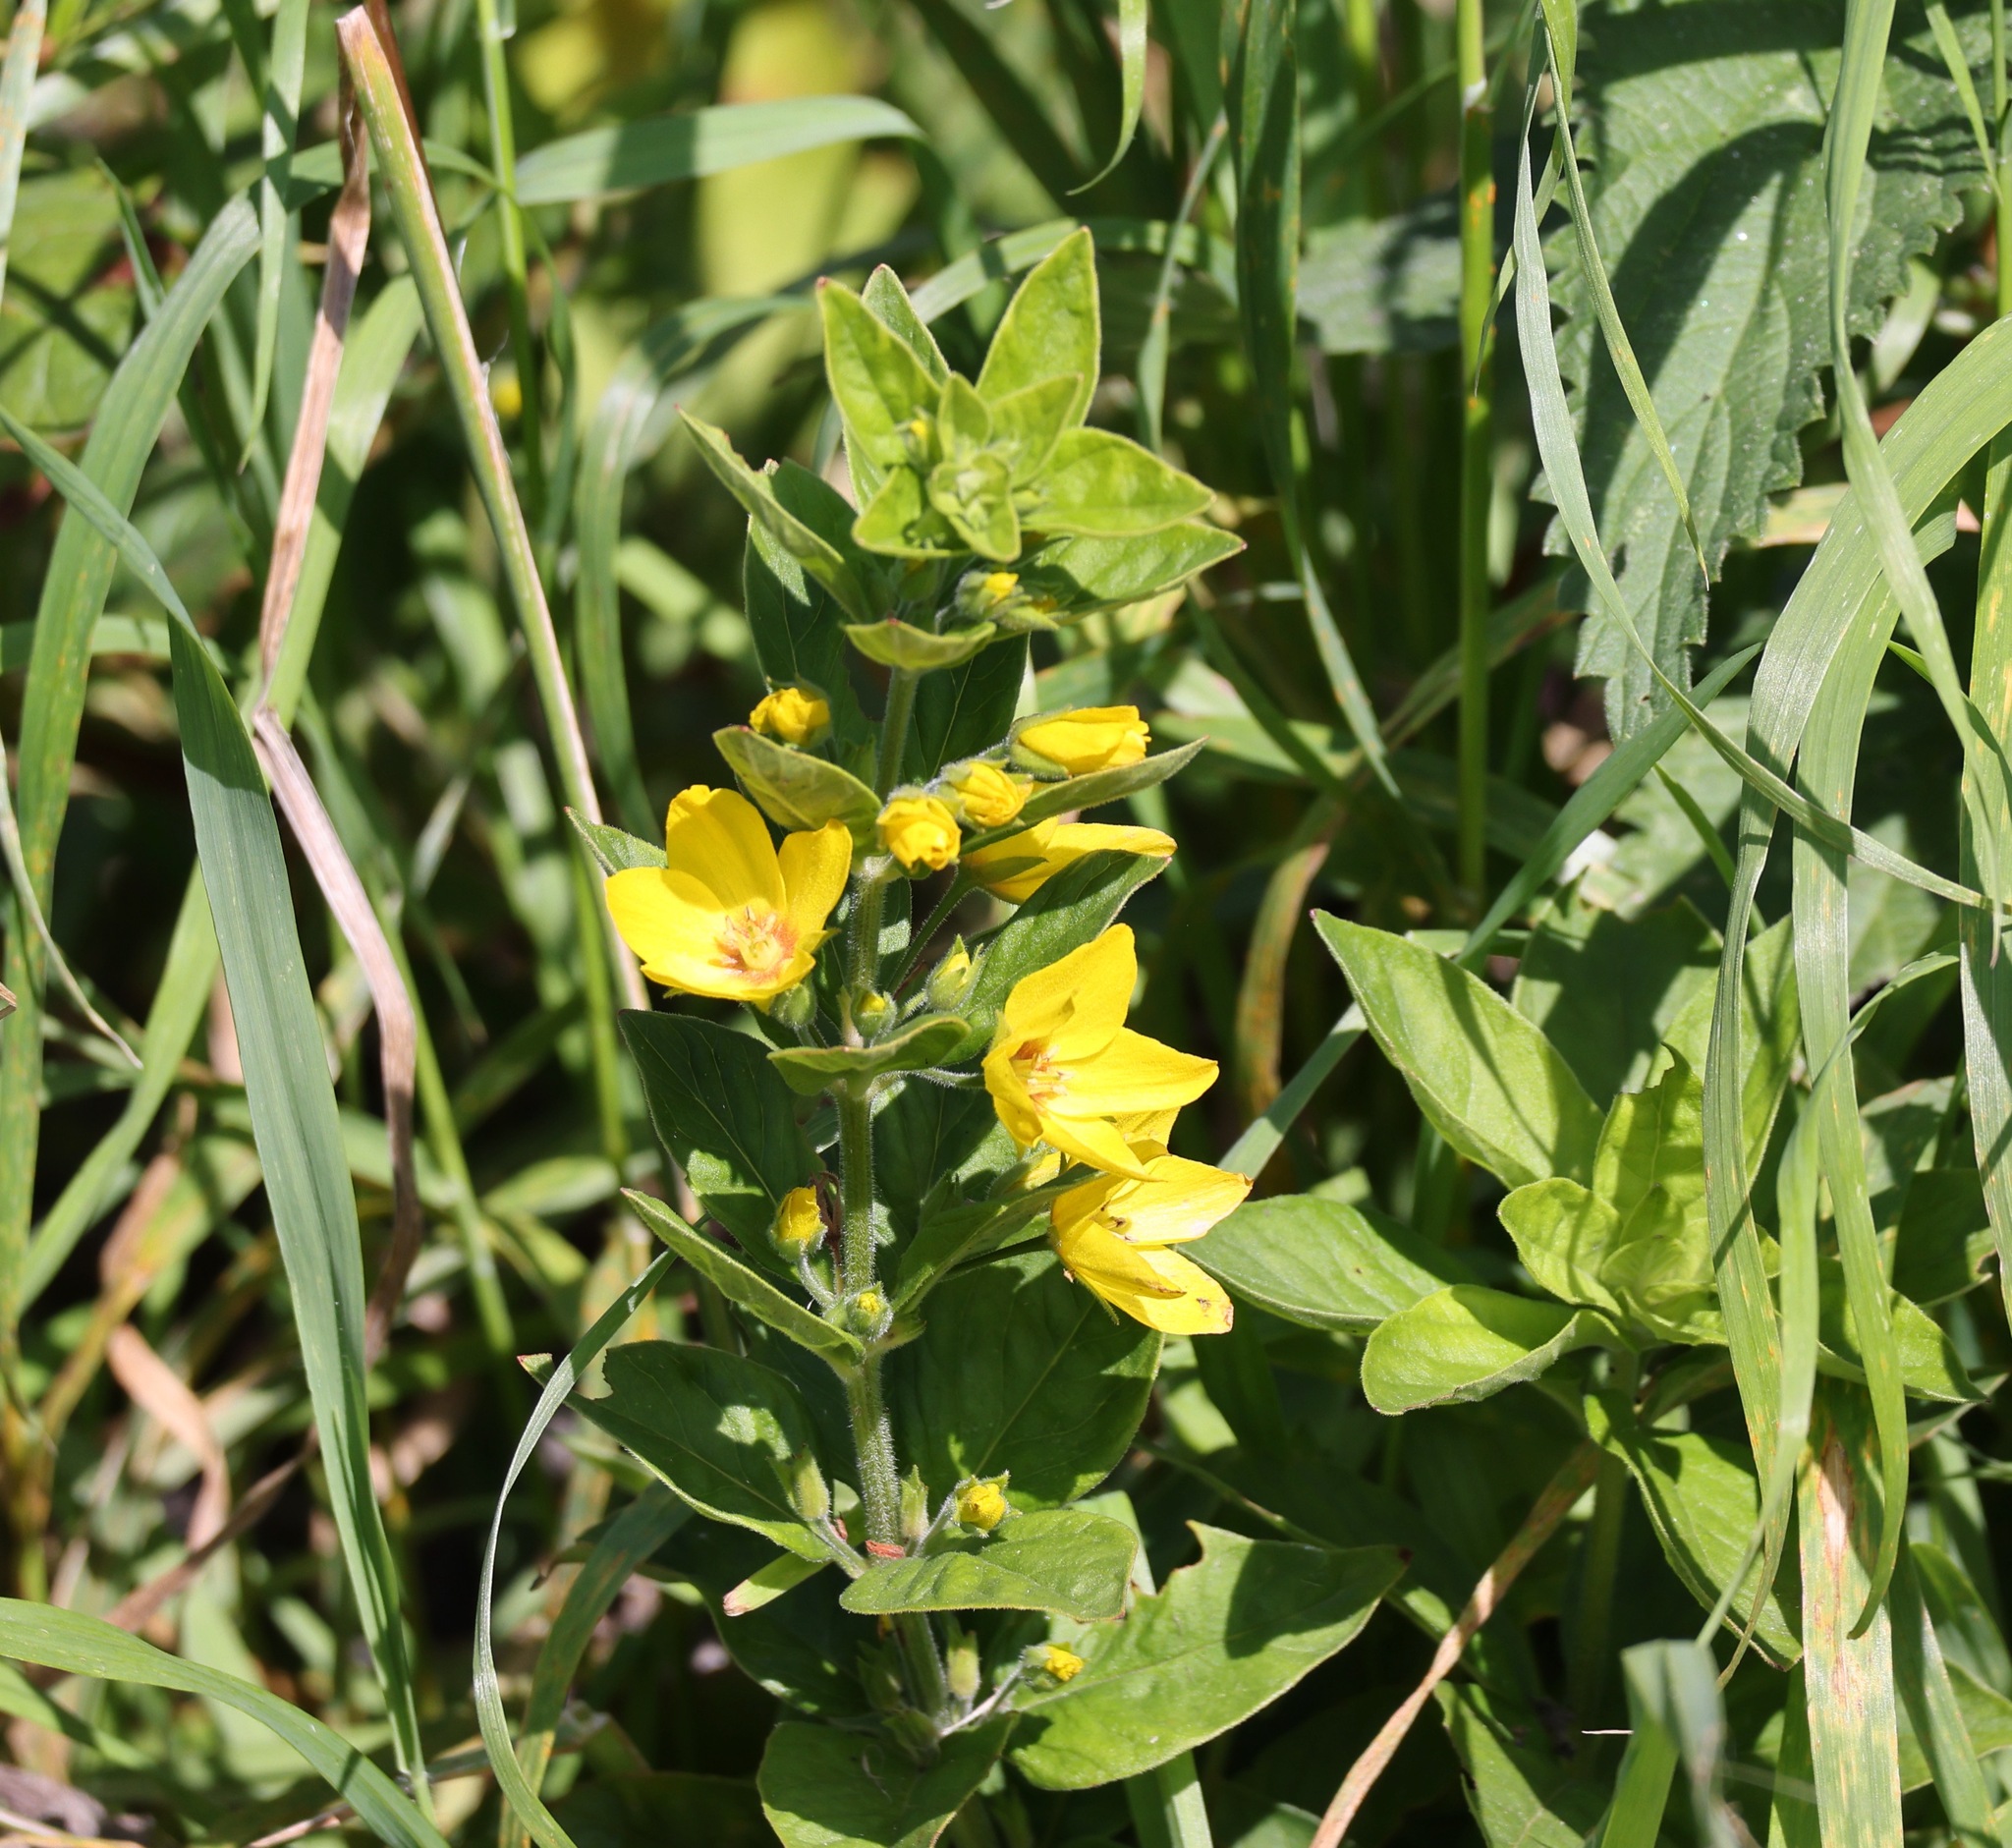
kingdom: Plantae
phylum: Tracheophyta
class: Magnoliopsida
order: Ericales
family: Primulaceae
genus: Lysimachia
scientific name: Lysimachia vulgaris
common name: Yellow loosestrife
